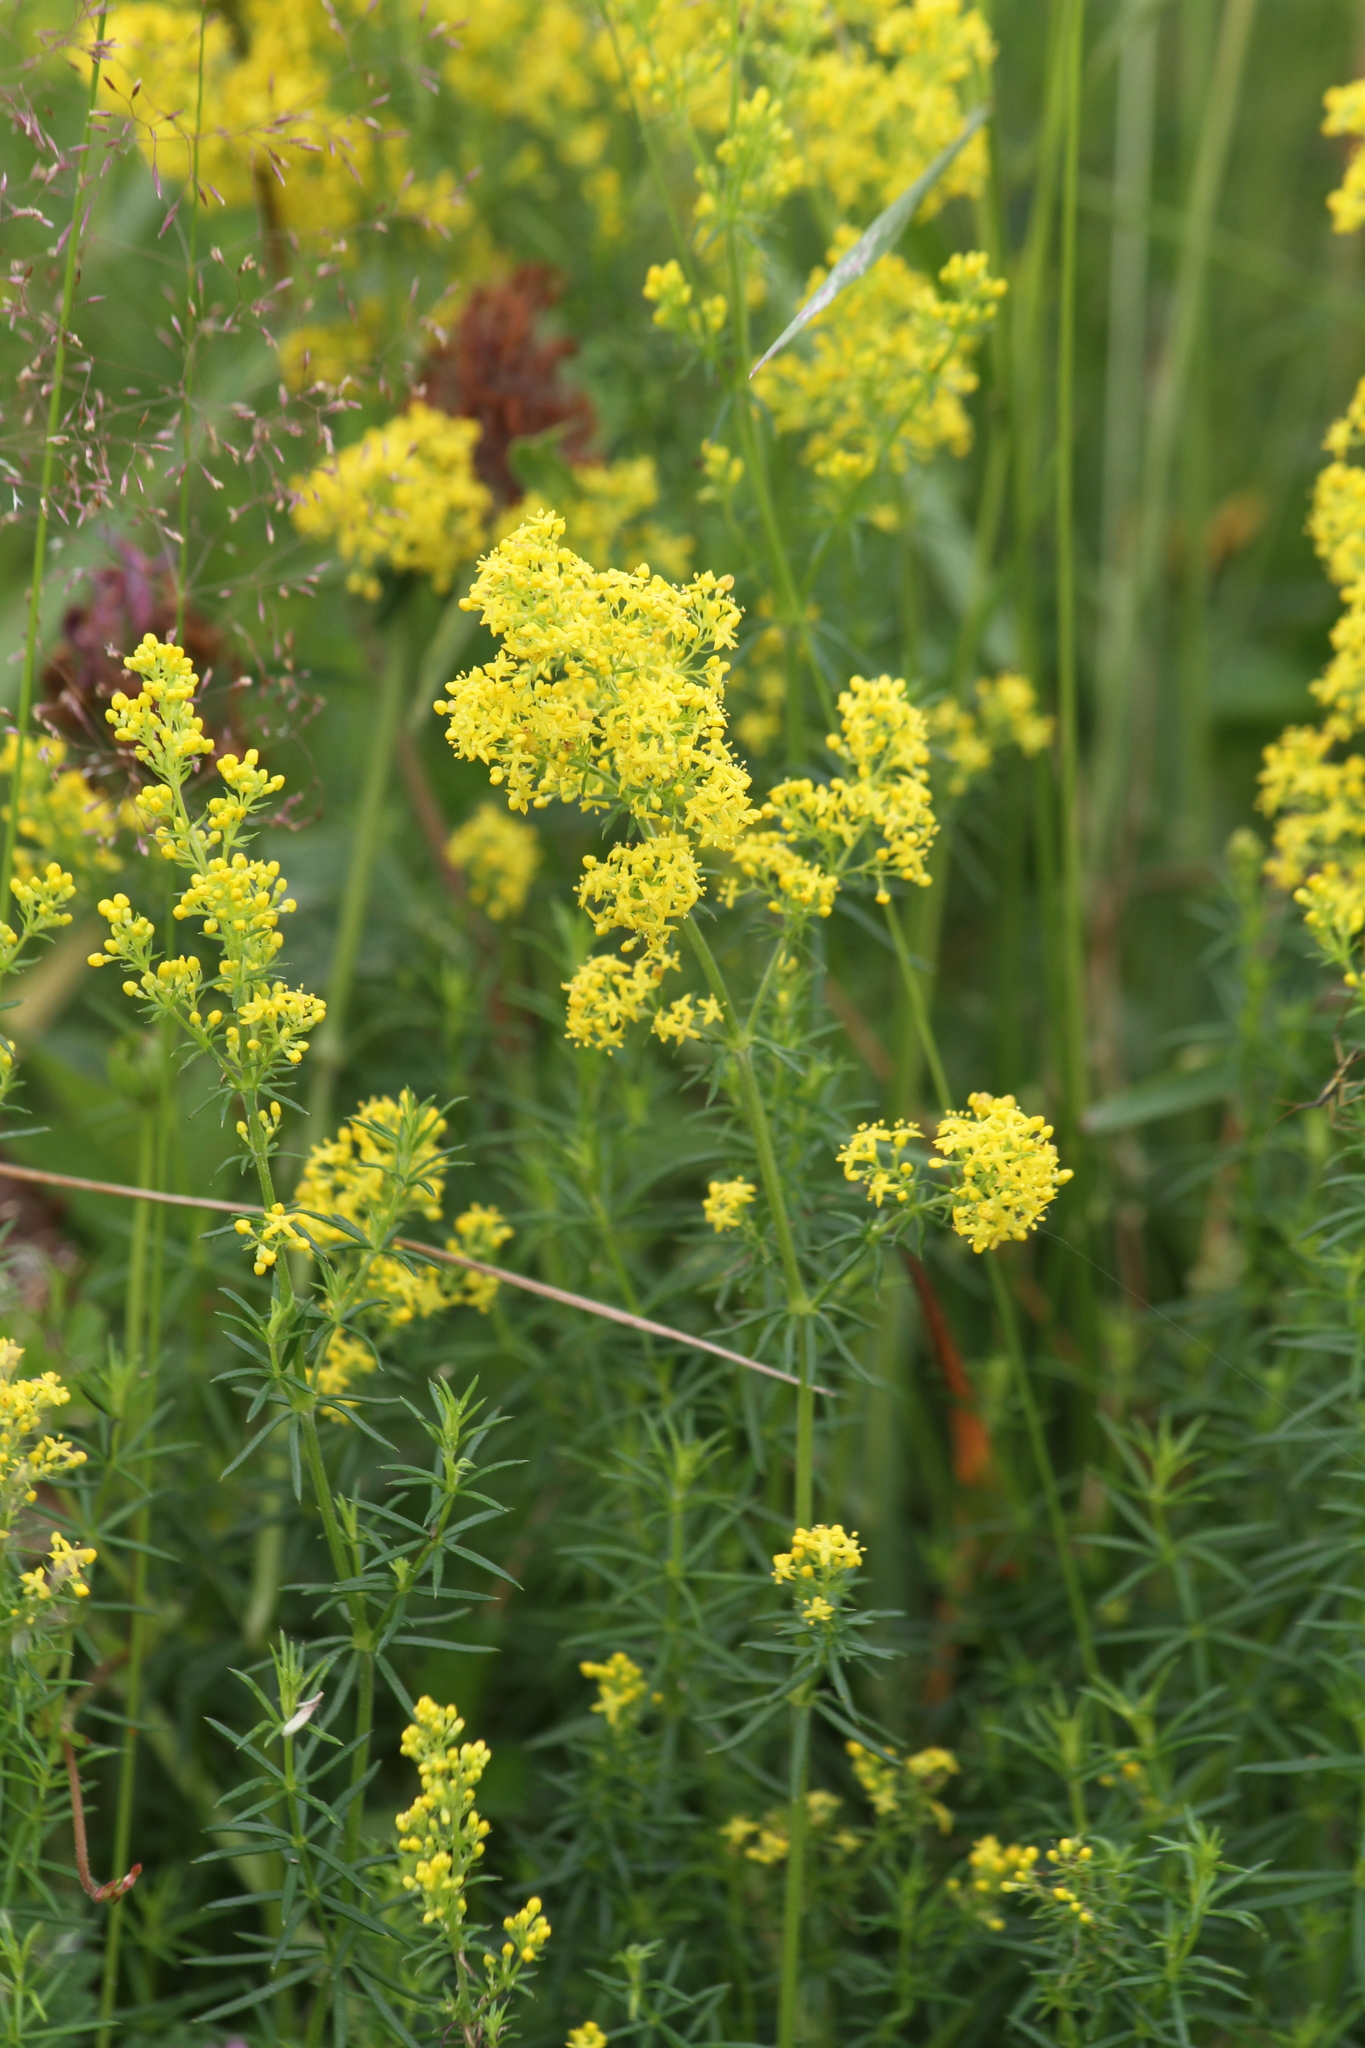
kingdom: Plantae
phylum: Tracheophyta
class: Magnoliopsida
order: Gentianales
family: Rubiaceae
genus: Galium
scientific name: Galium verum
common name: Lady's bedstraw
